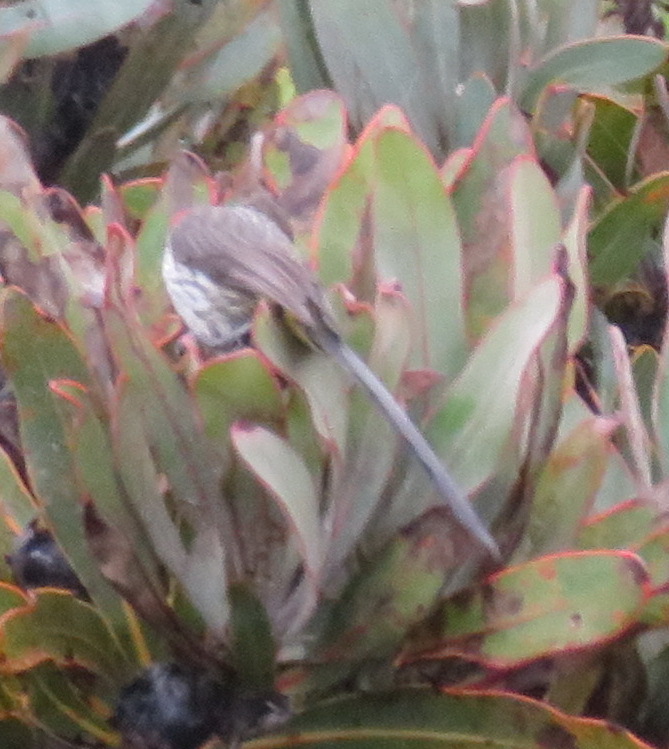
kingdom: Animalia
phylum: Chordata
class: Aves
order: Passeriformes
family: Promeropidae
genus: Promerops
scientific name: Promerops cafer
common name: Cape sugarbird
